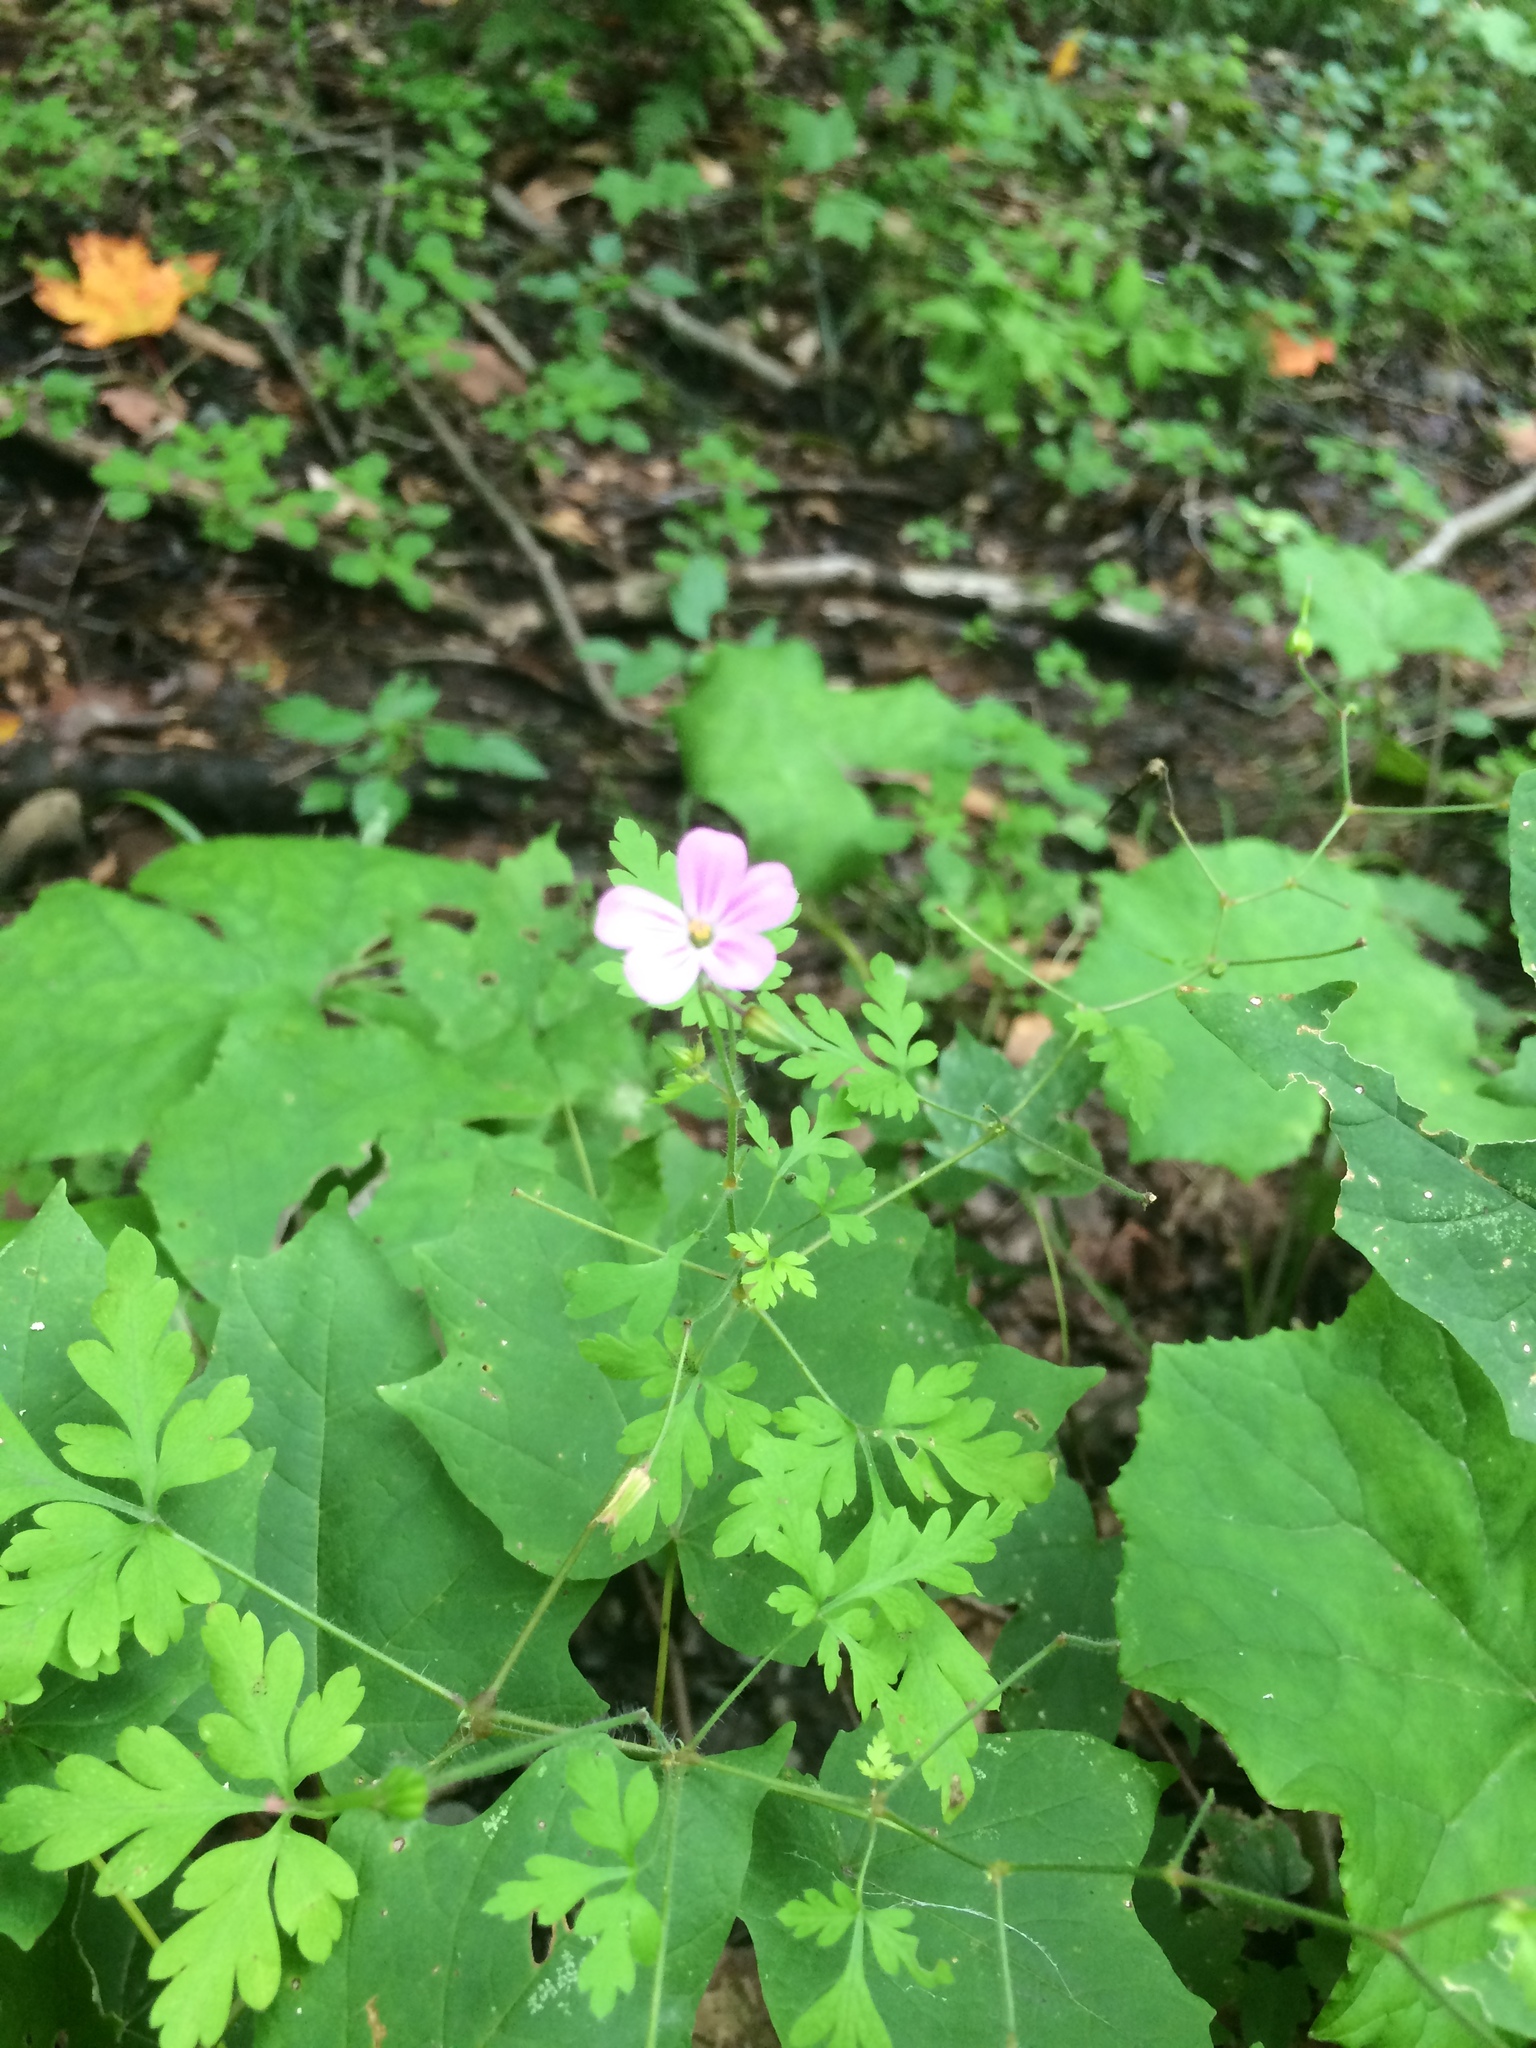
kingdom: Plantae
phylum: Tracheophyta
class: Magnoliopsida
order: Geraniales
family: Geraniaceae
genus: Geranium
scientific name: Geranium robertianum
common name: Herb-robert
